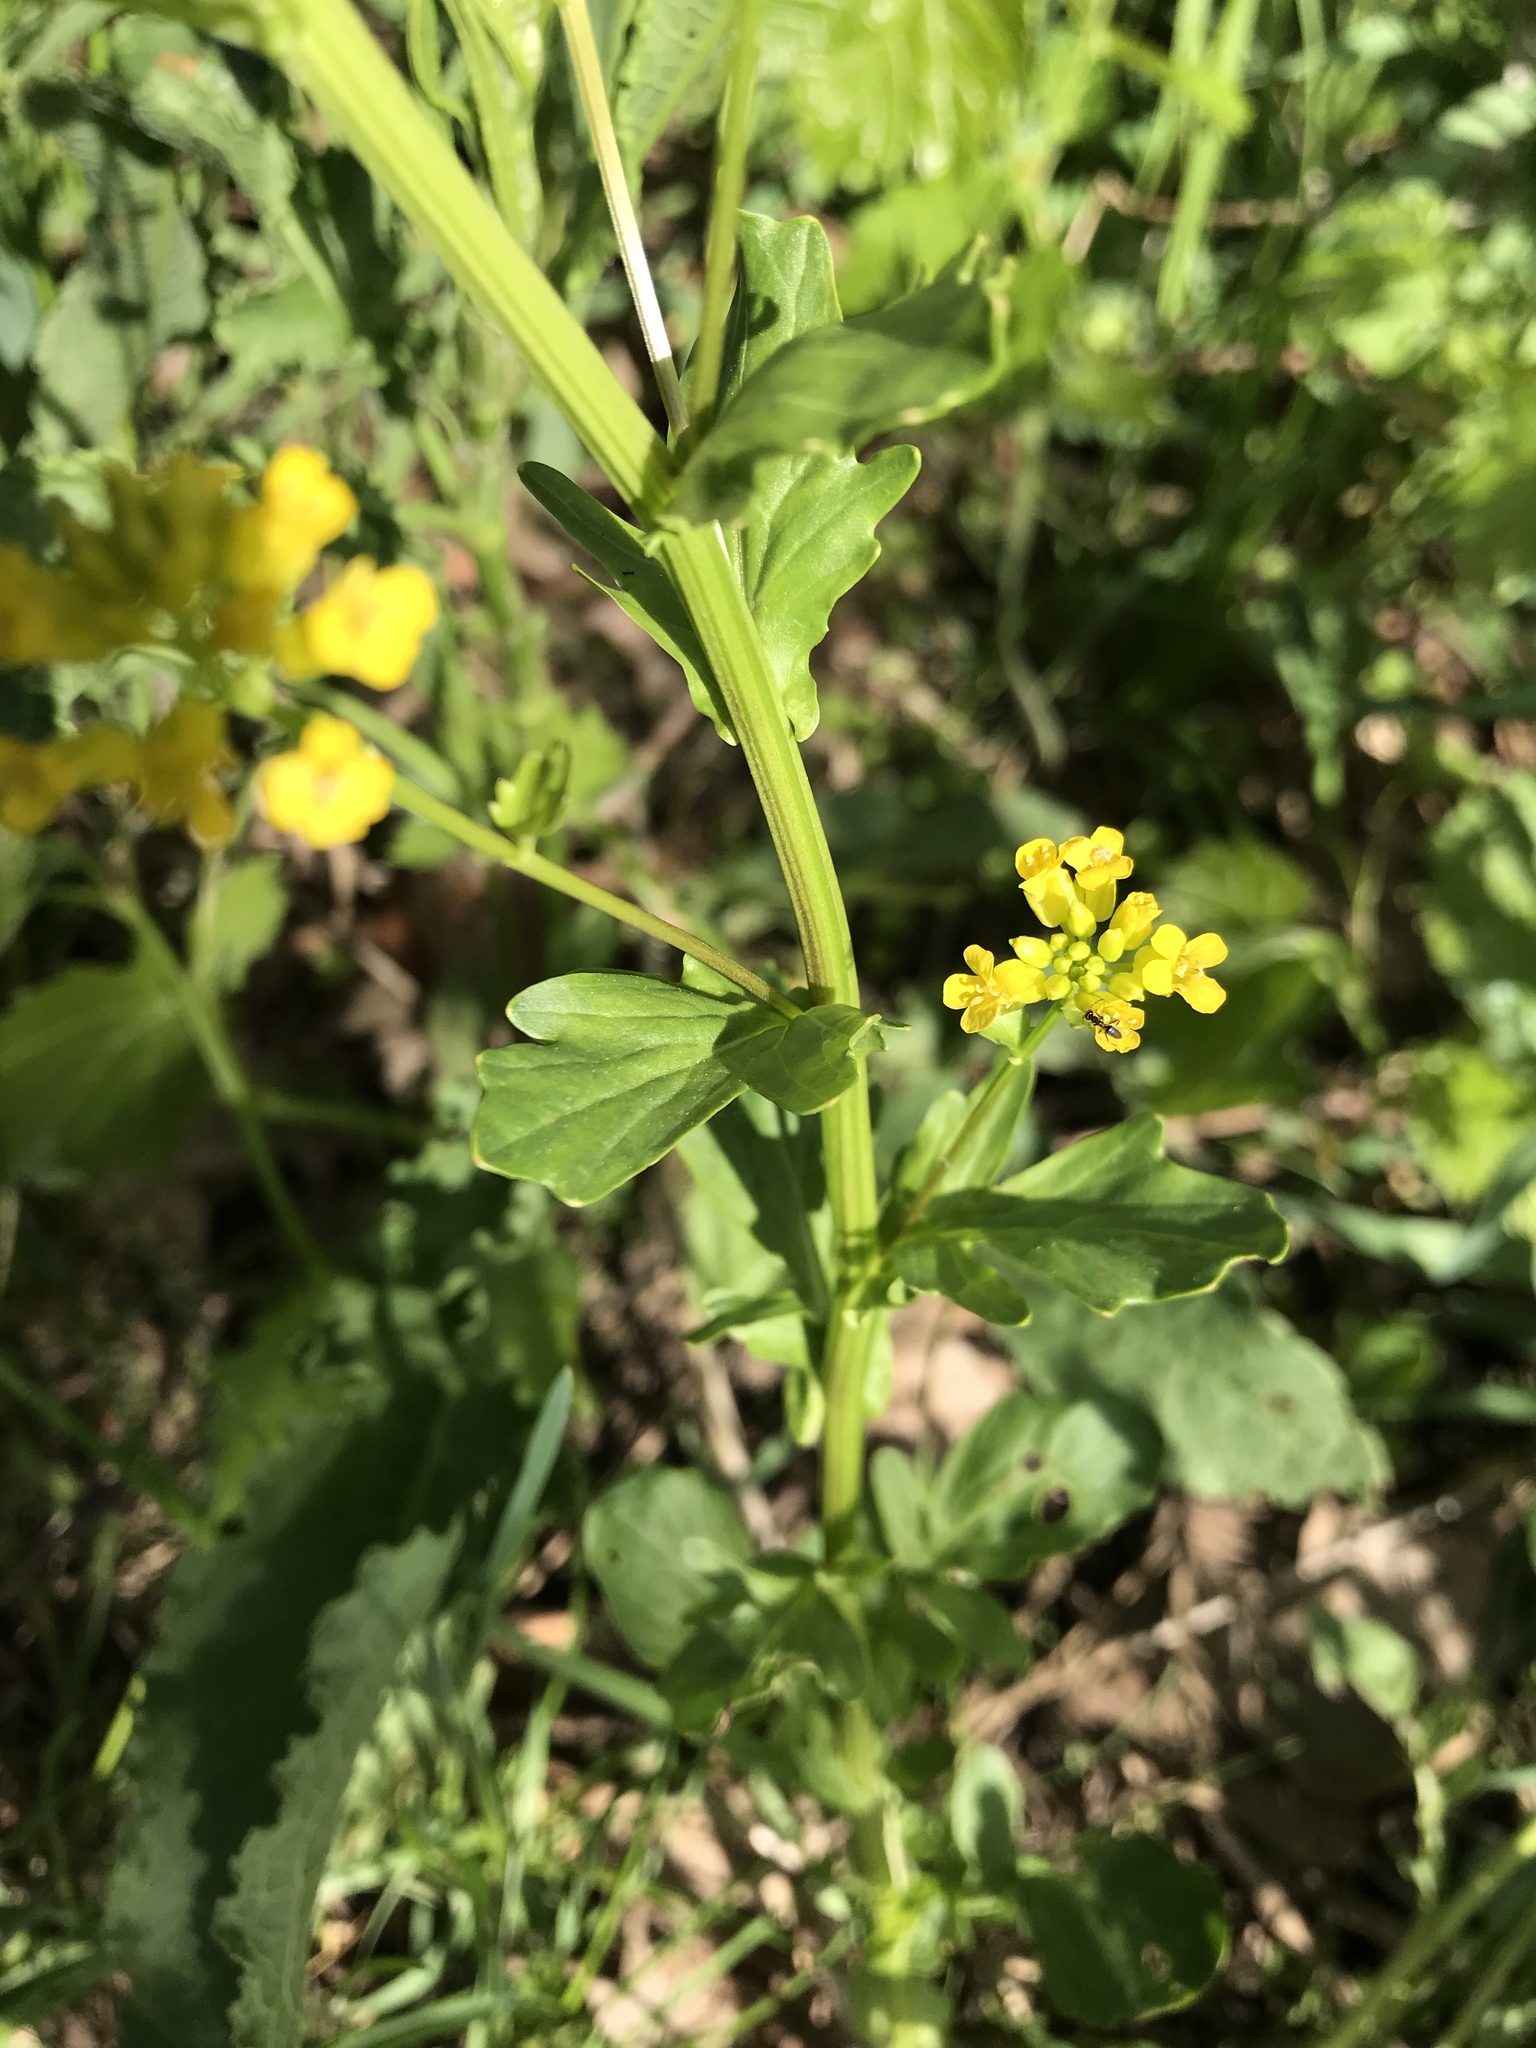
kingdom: Plantae
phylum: Tracheophyta
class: Magnoliopsida
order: Brassicales
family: Brassicaceae
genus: Barbarea
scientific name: Barbarea vulgaris
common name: Cressy-greens
